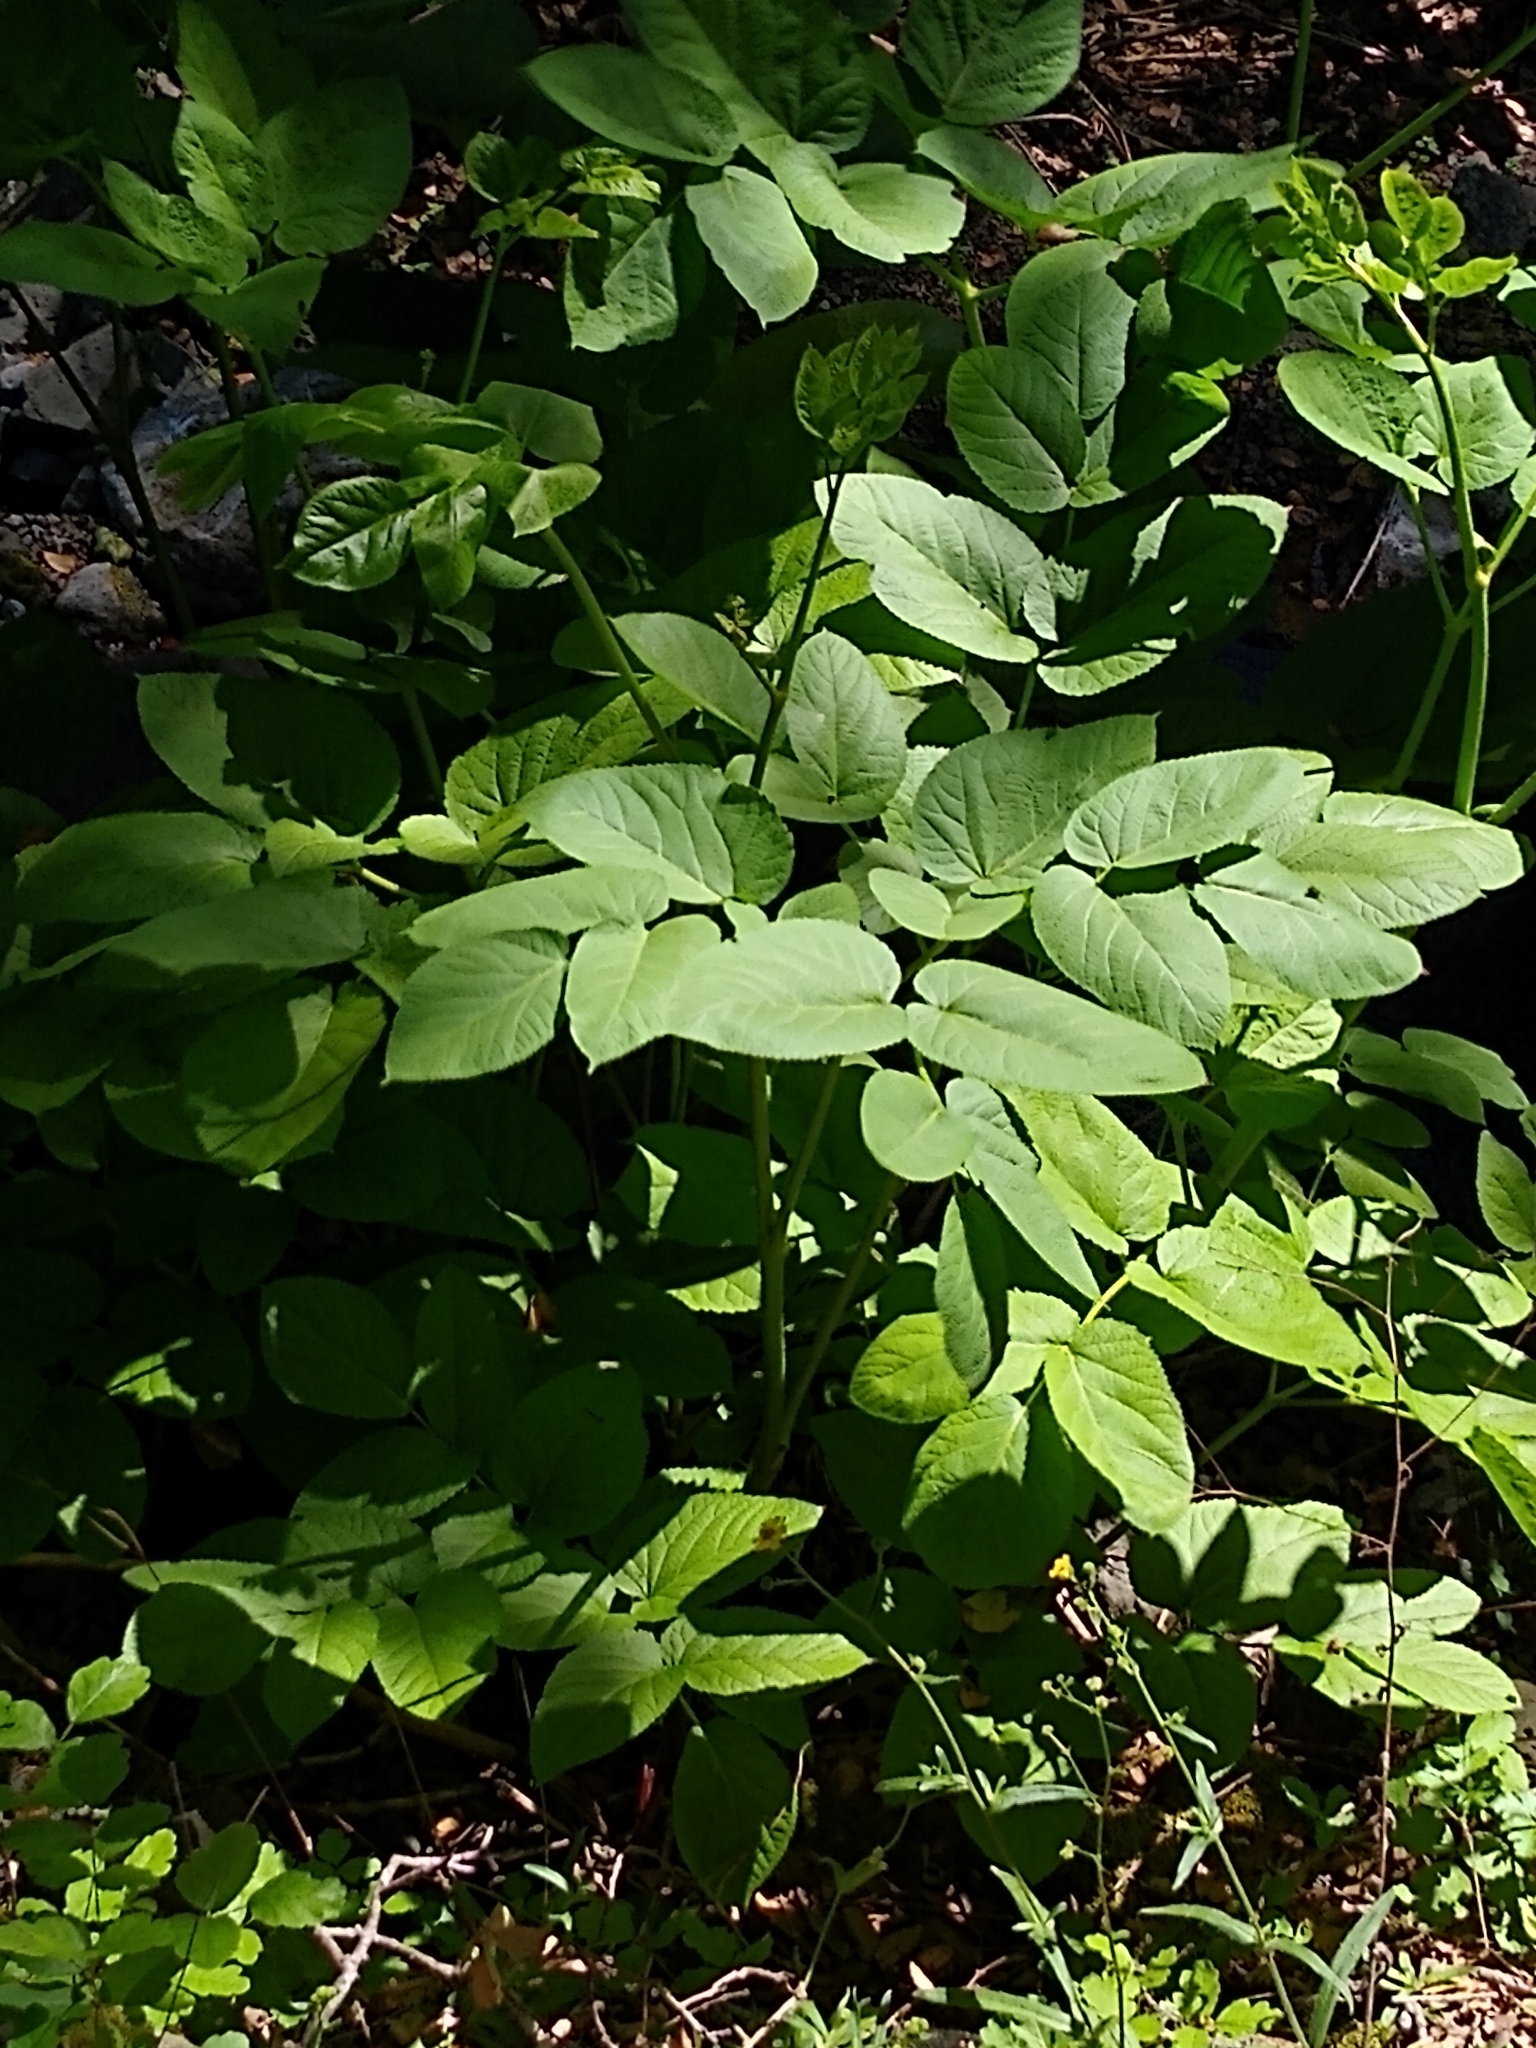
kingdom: Plantae
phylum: Tracheophyta
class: Magnoliopsida
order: Apiales
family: Araliaceae
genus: Aralia
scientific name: Aralia californica
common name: California-ginseng
